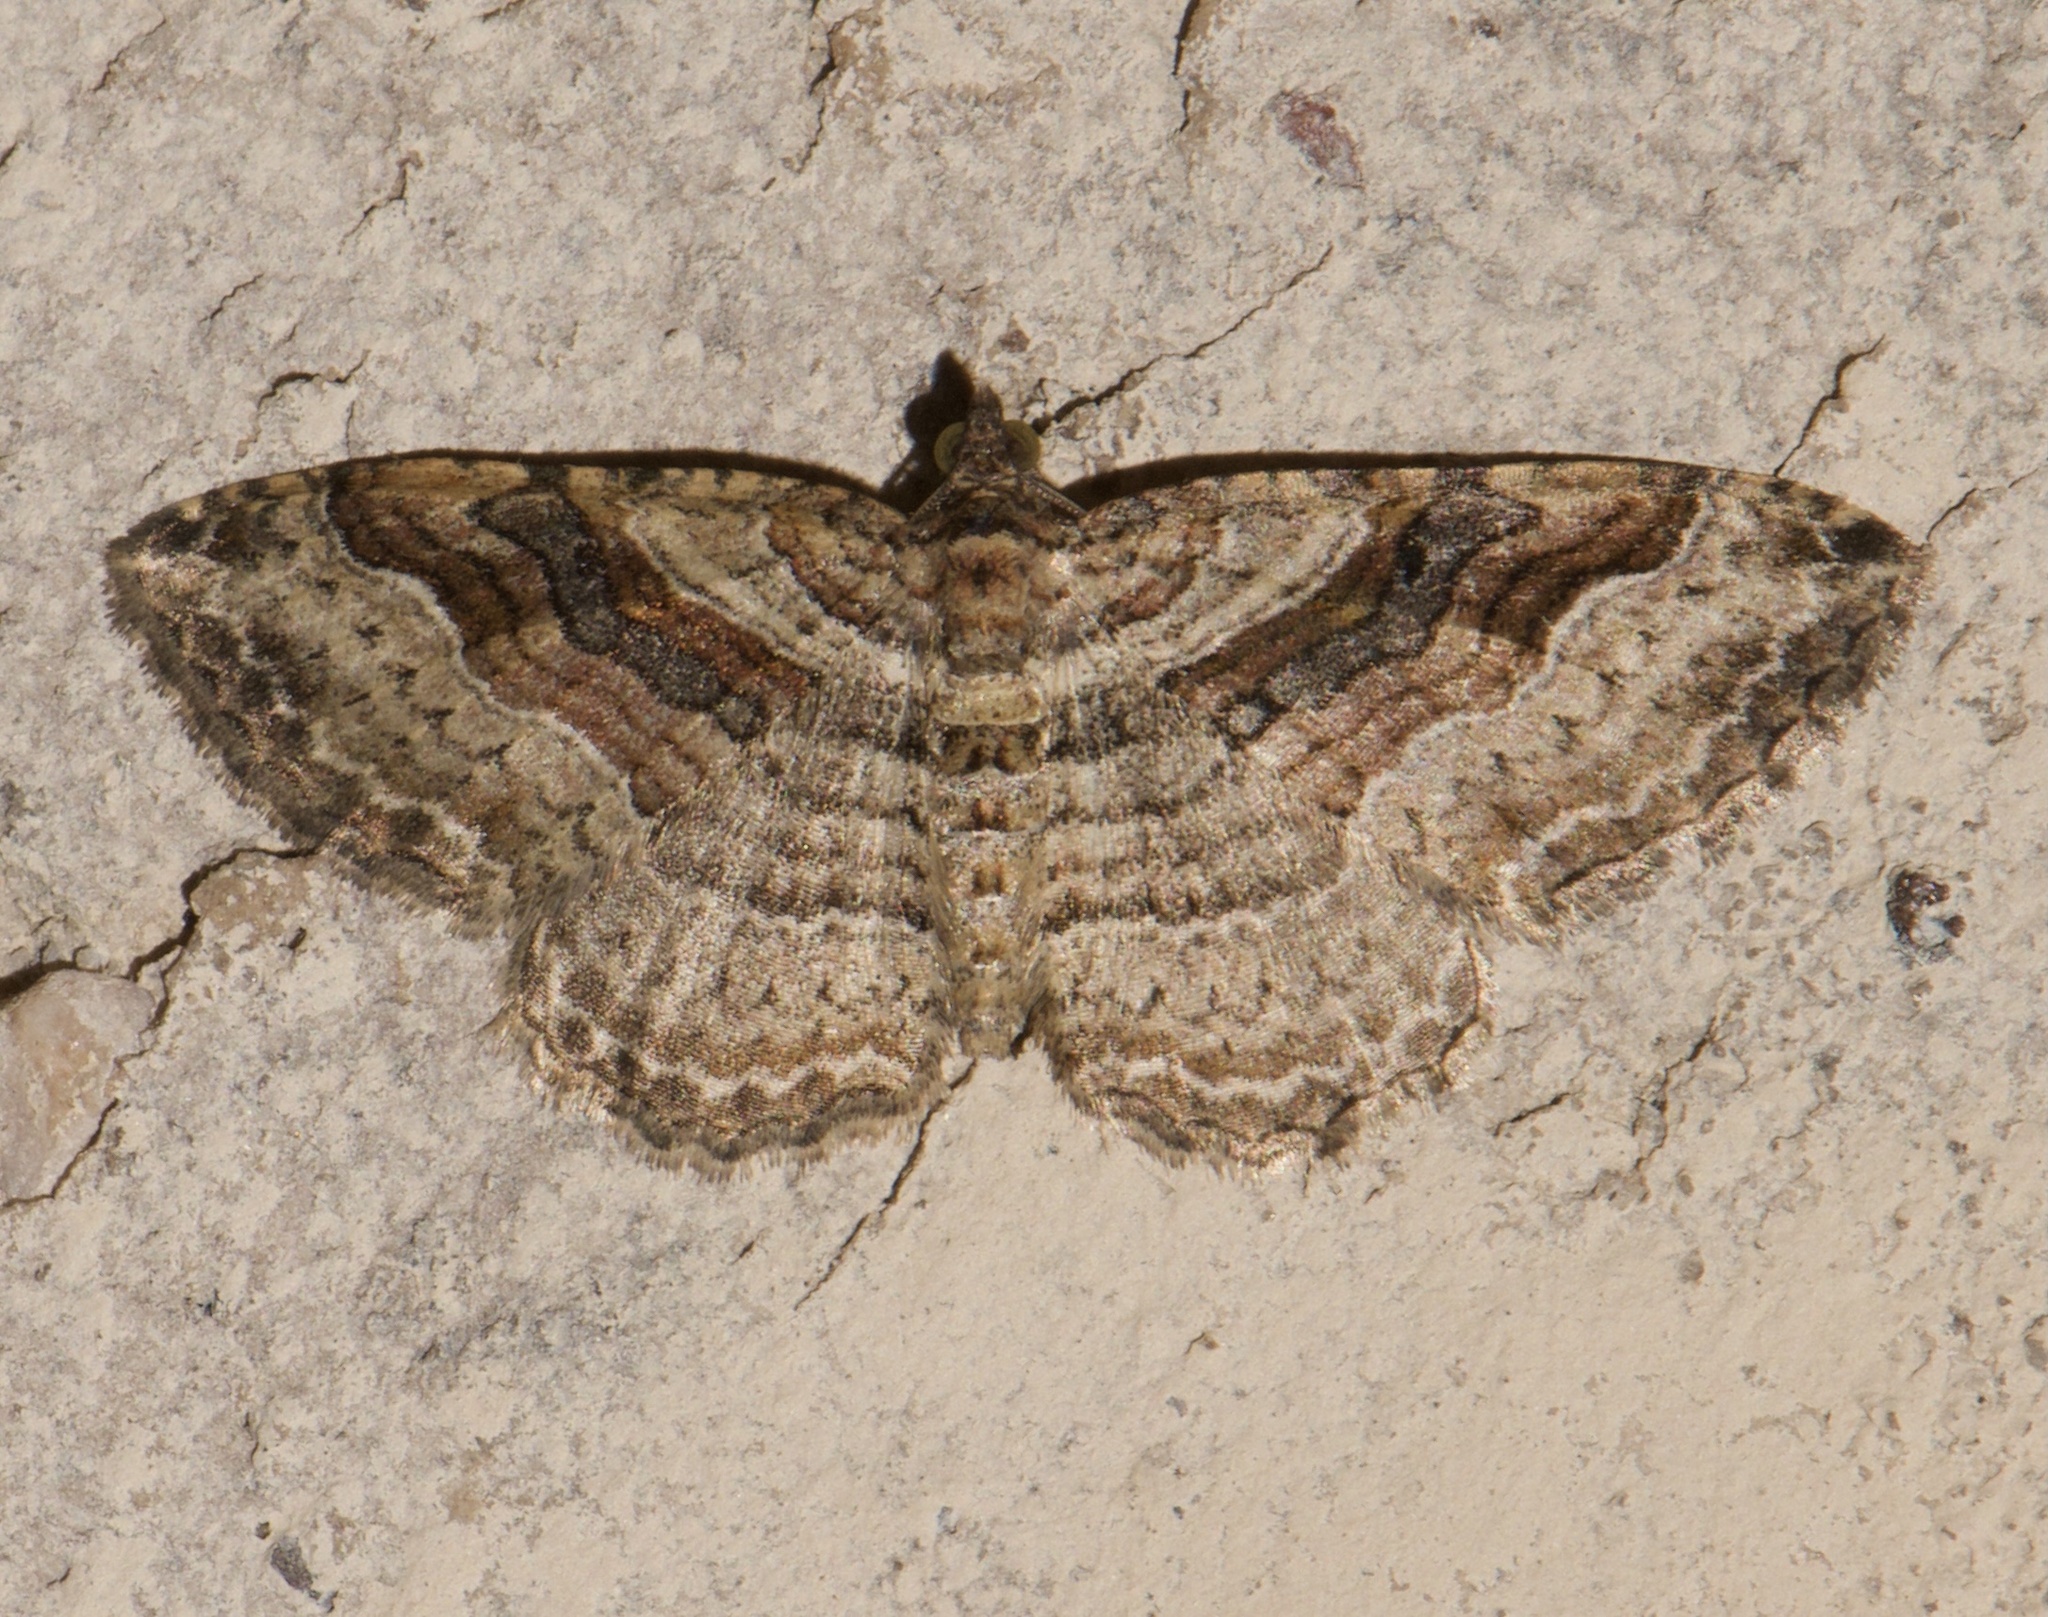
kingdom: Animalia
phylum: Arthropoda
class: Insecta
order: Lepidoptera
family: Geometridae
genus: Costaconvexa
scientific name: Costaconvexa centrostrigaria
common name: Bent-line carpet
